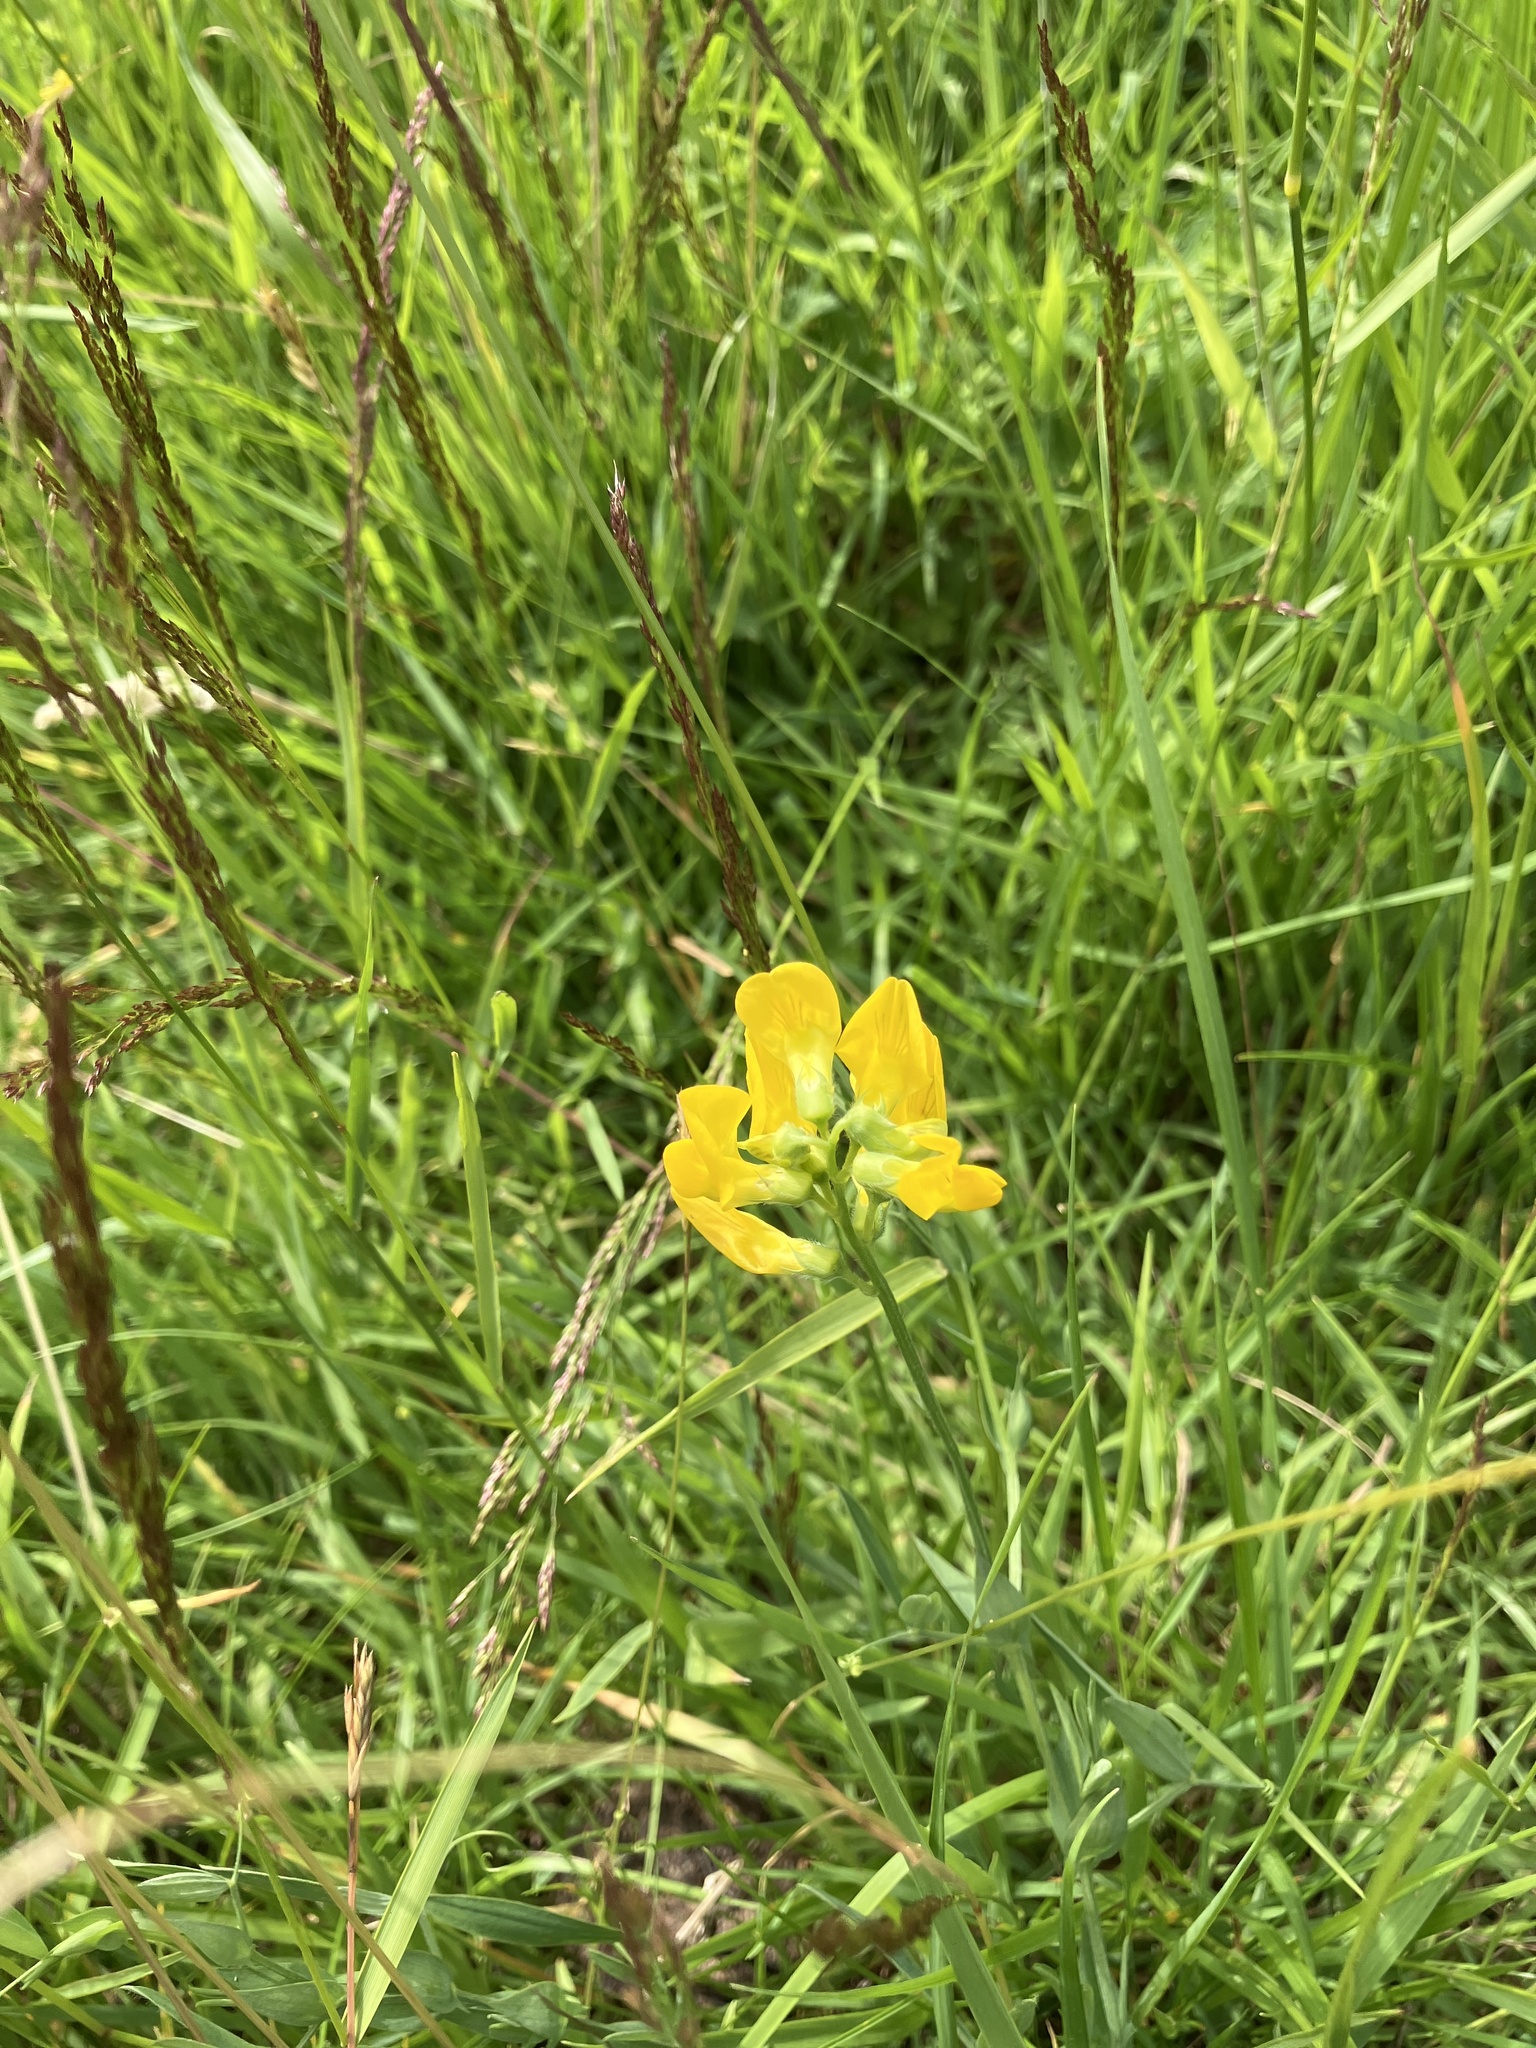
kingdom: Plantae
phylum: Tracheophyta
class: Magnoliopsida
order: Fabales
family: Fabaceae
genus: Lathyrus
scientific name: Lathyrus pratensis
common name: Meadow vetchling
